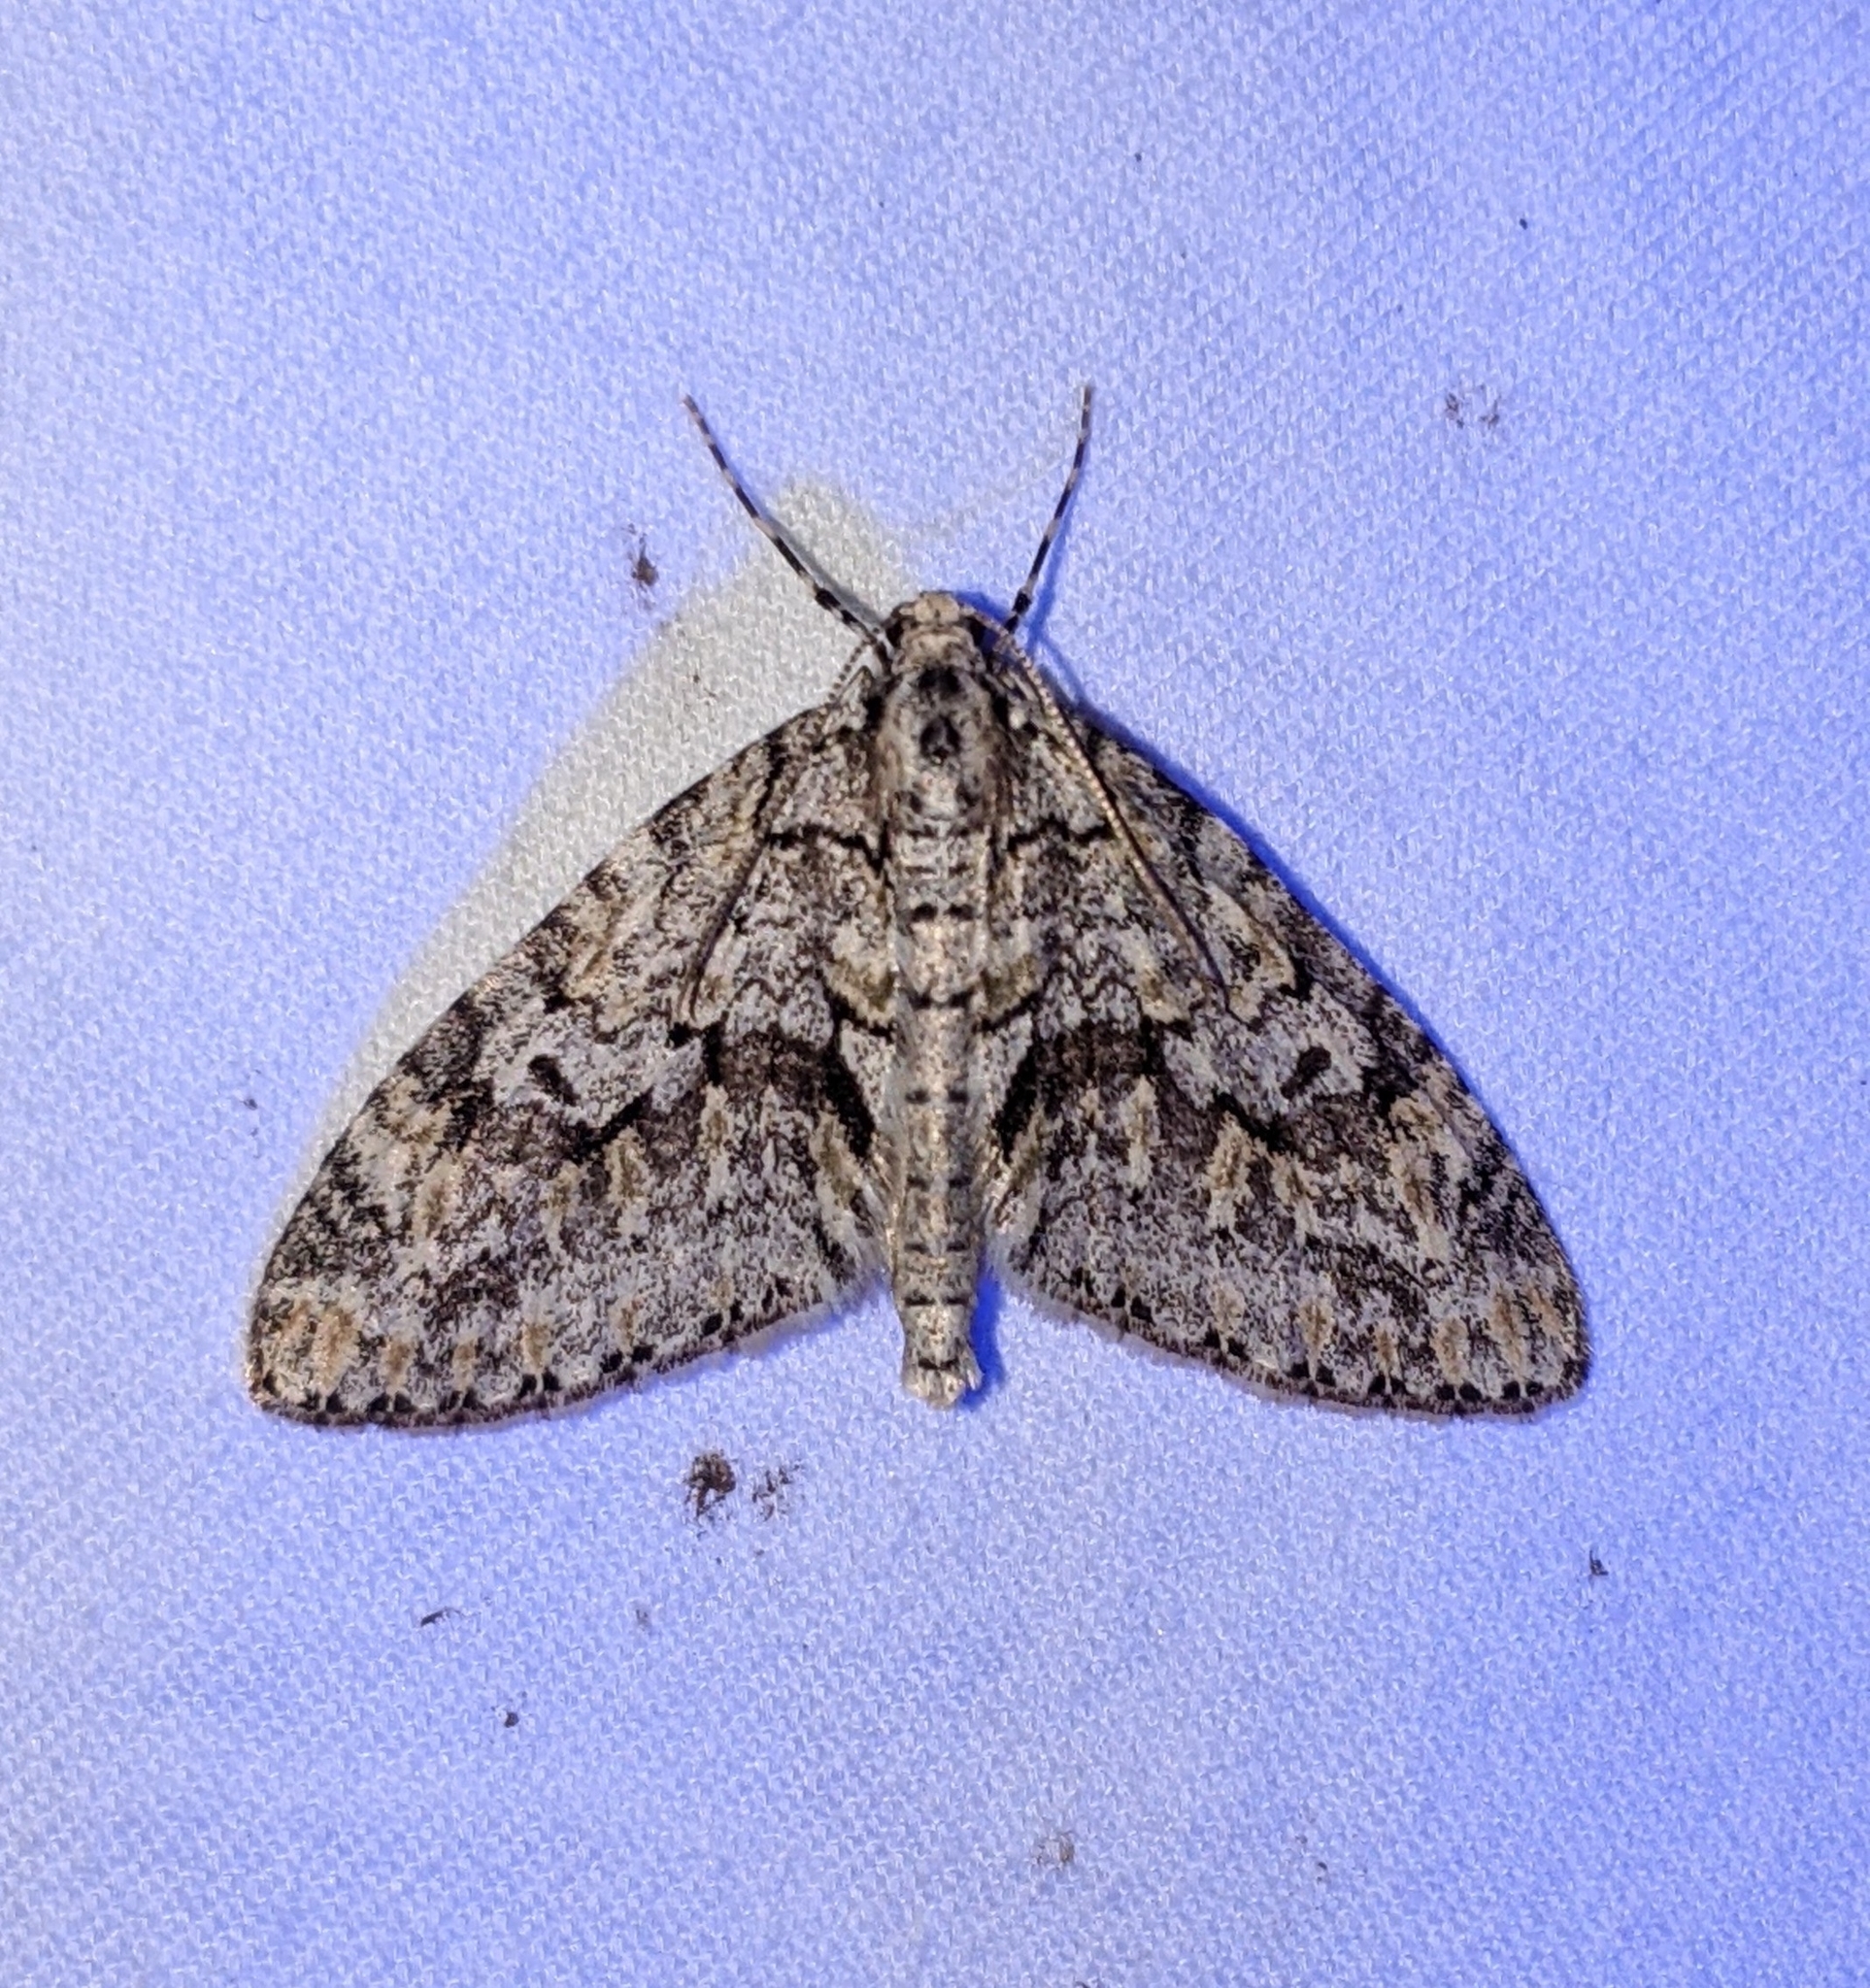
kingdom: Animalia
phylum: Arthropoda
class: Insecta
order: Lepidoptera
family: Geometridae
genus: Cladara
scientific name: Cladara limitaria
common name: Mottled gray carpet
